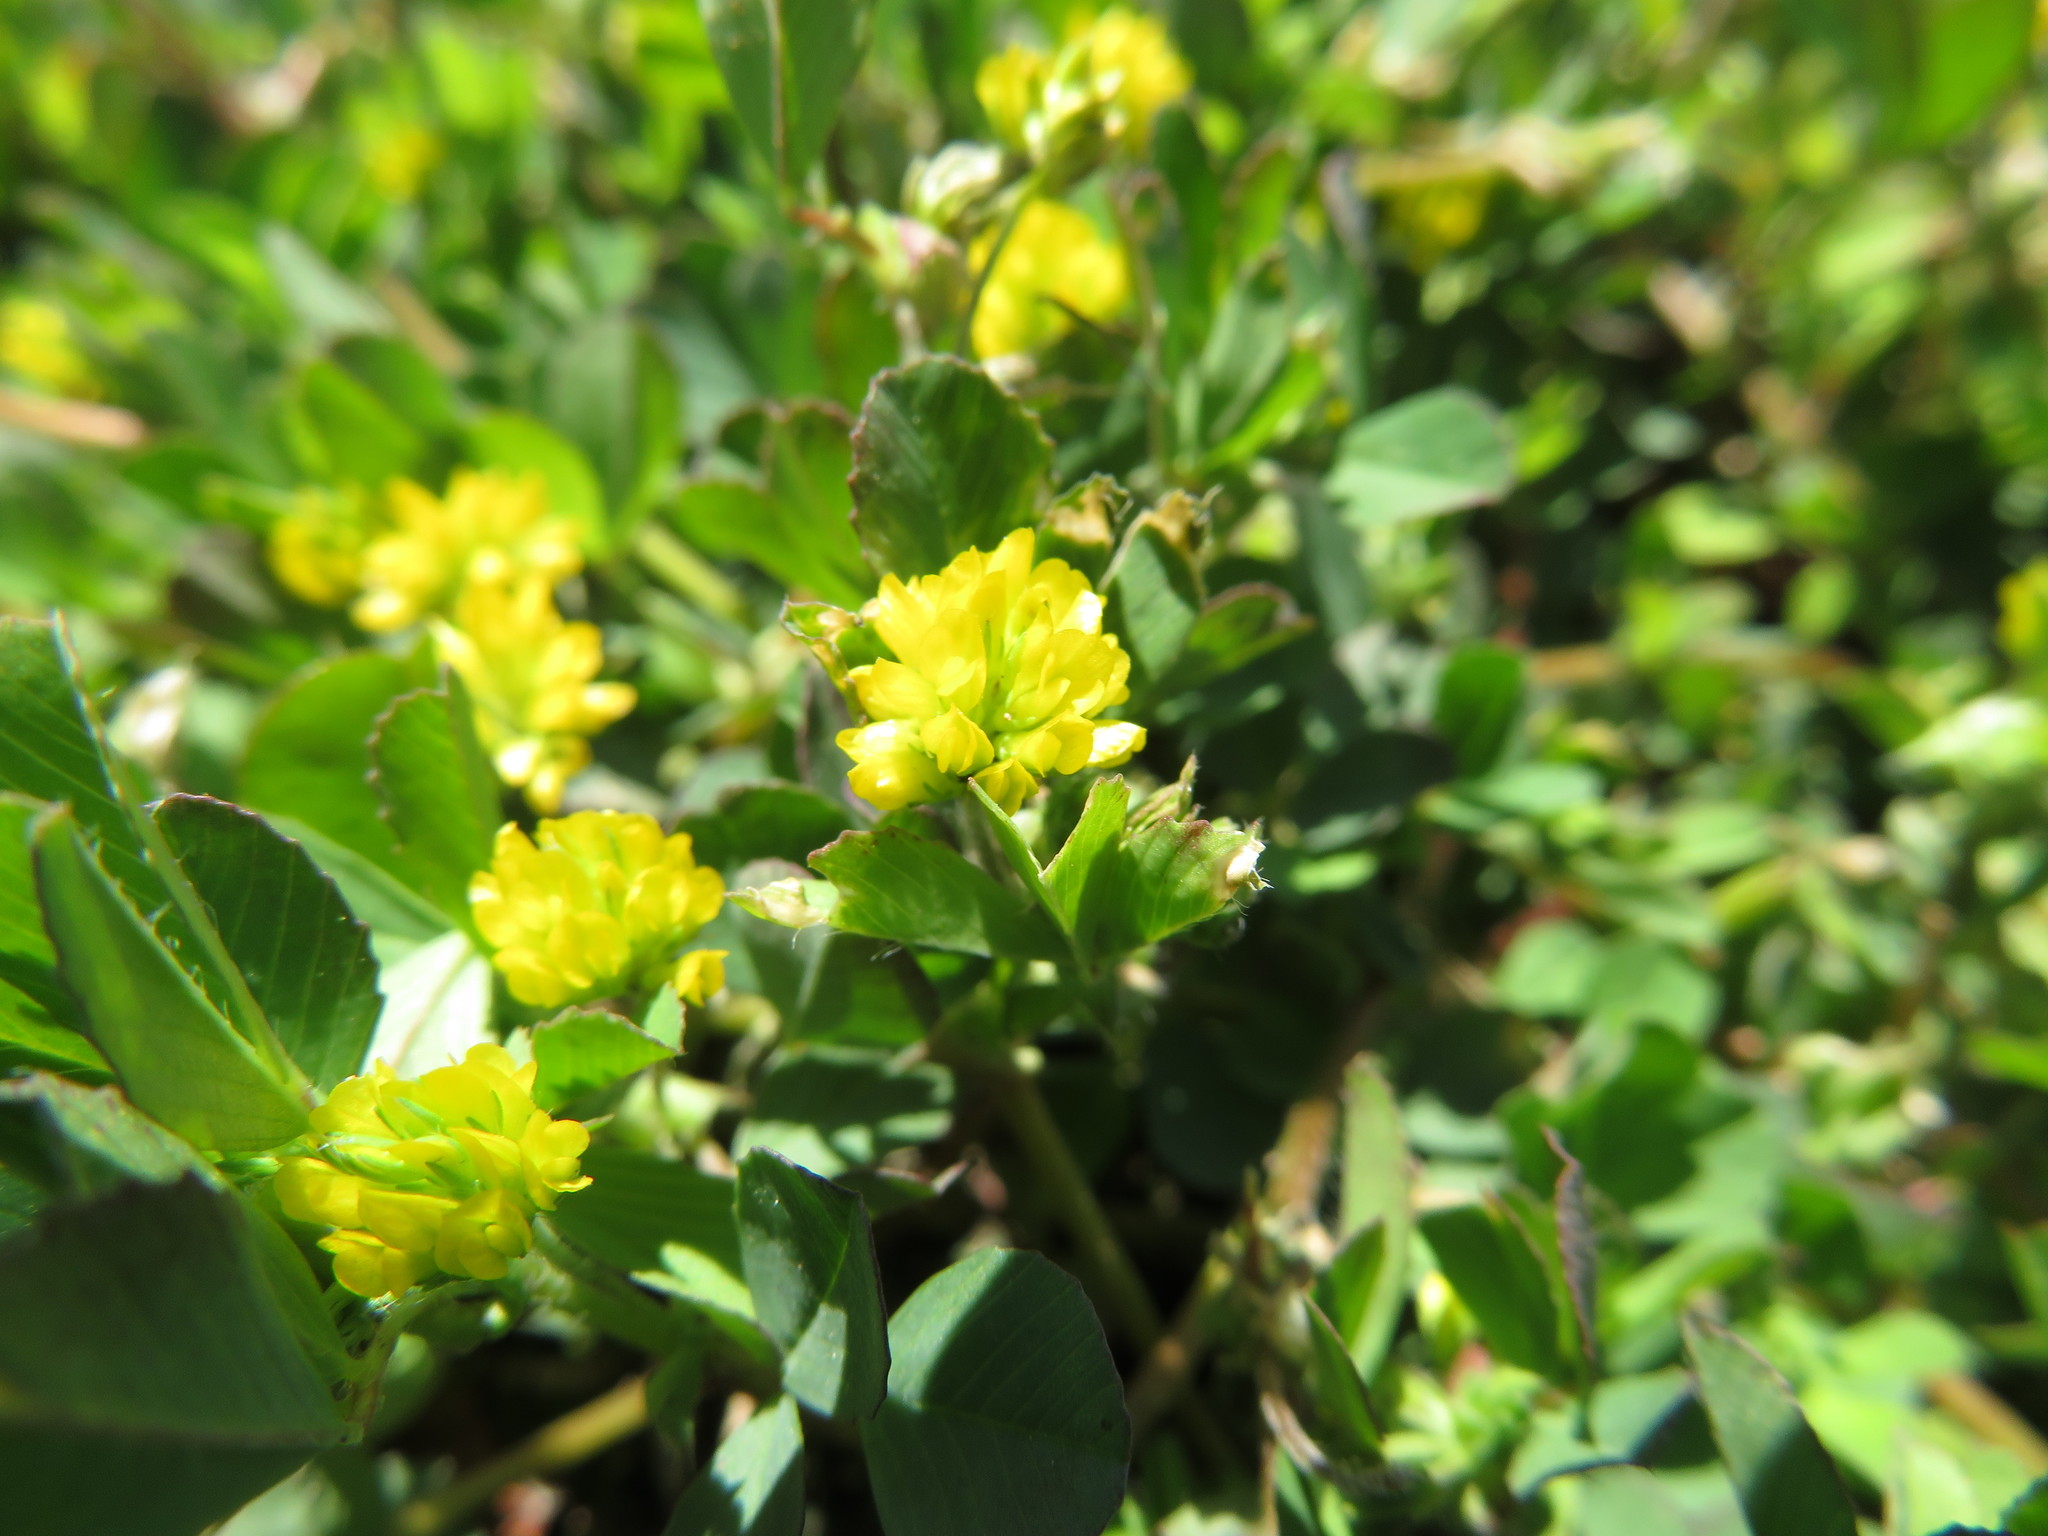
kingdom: Plantae
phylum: Tracheophyta
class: Magnoliopsida
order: Fabales
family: Fabaceae
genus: Trifolium
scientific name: Trifolium dubium
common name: Suckling clover
